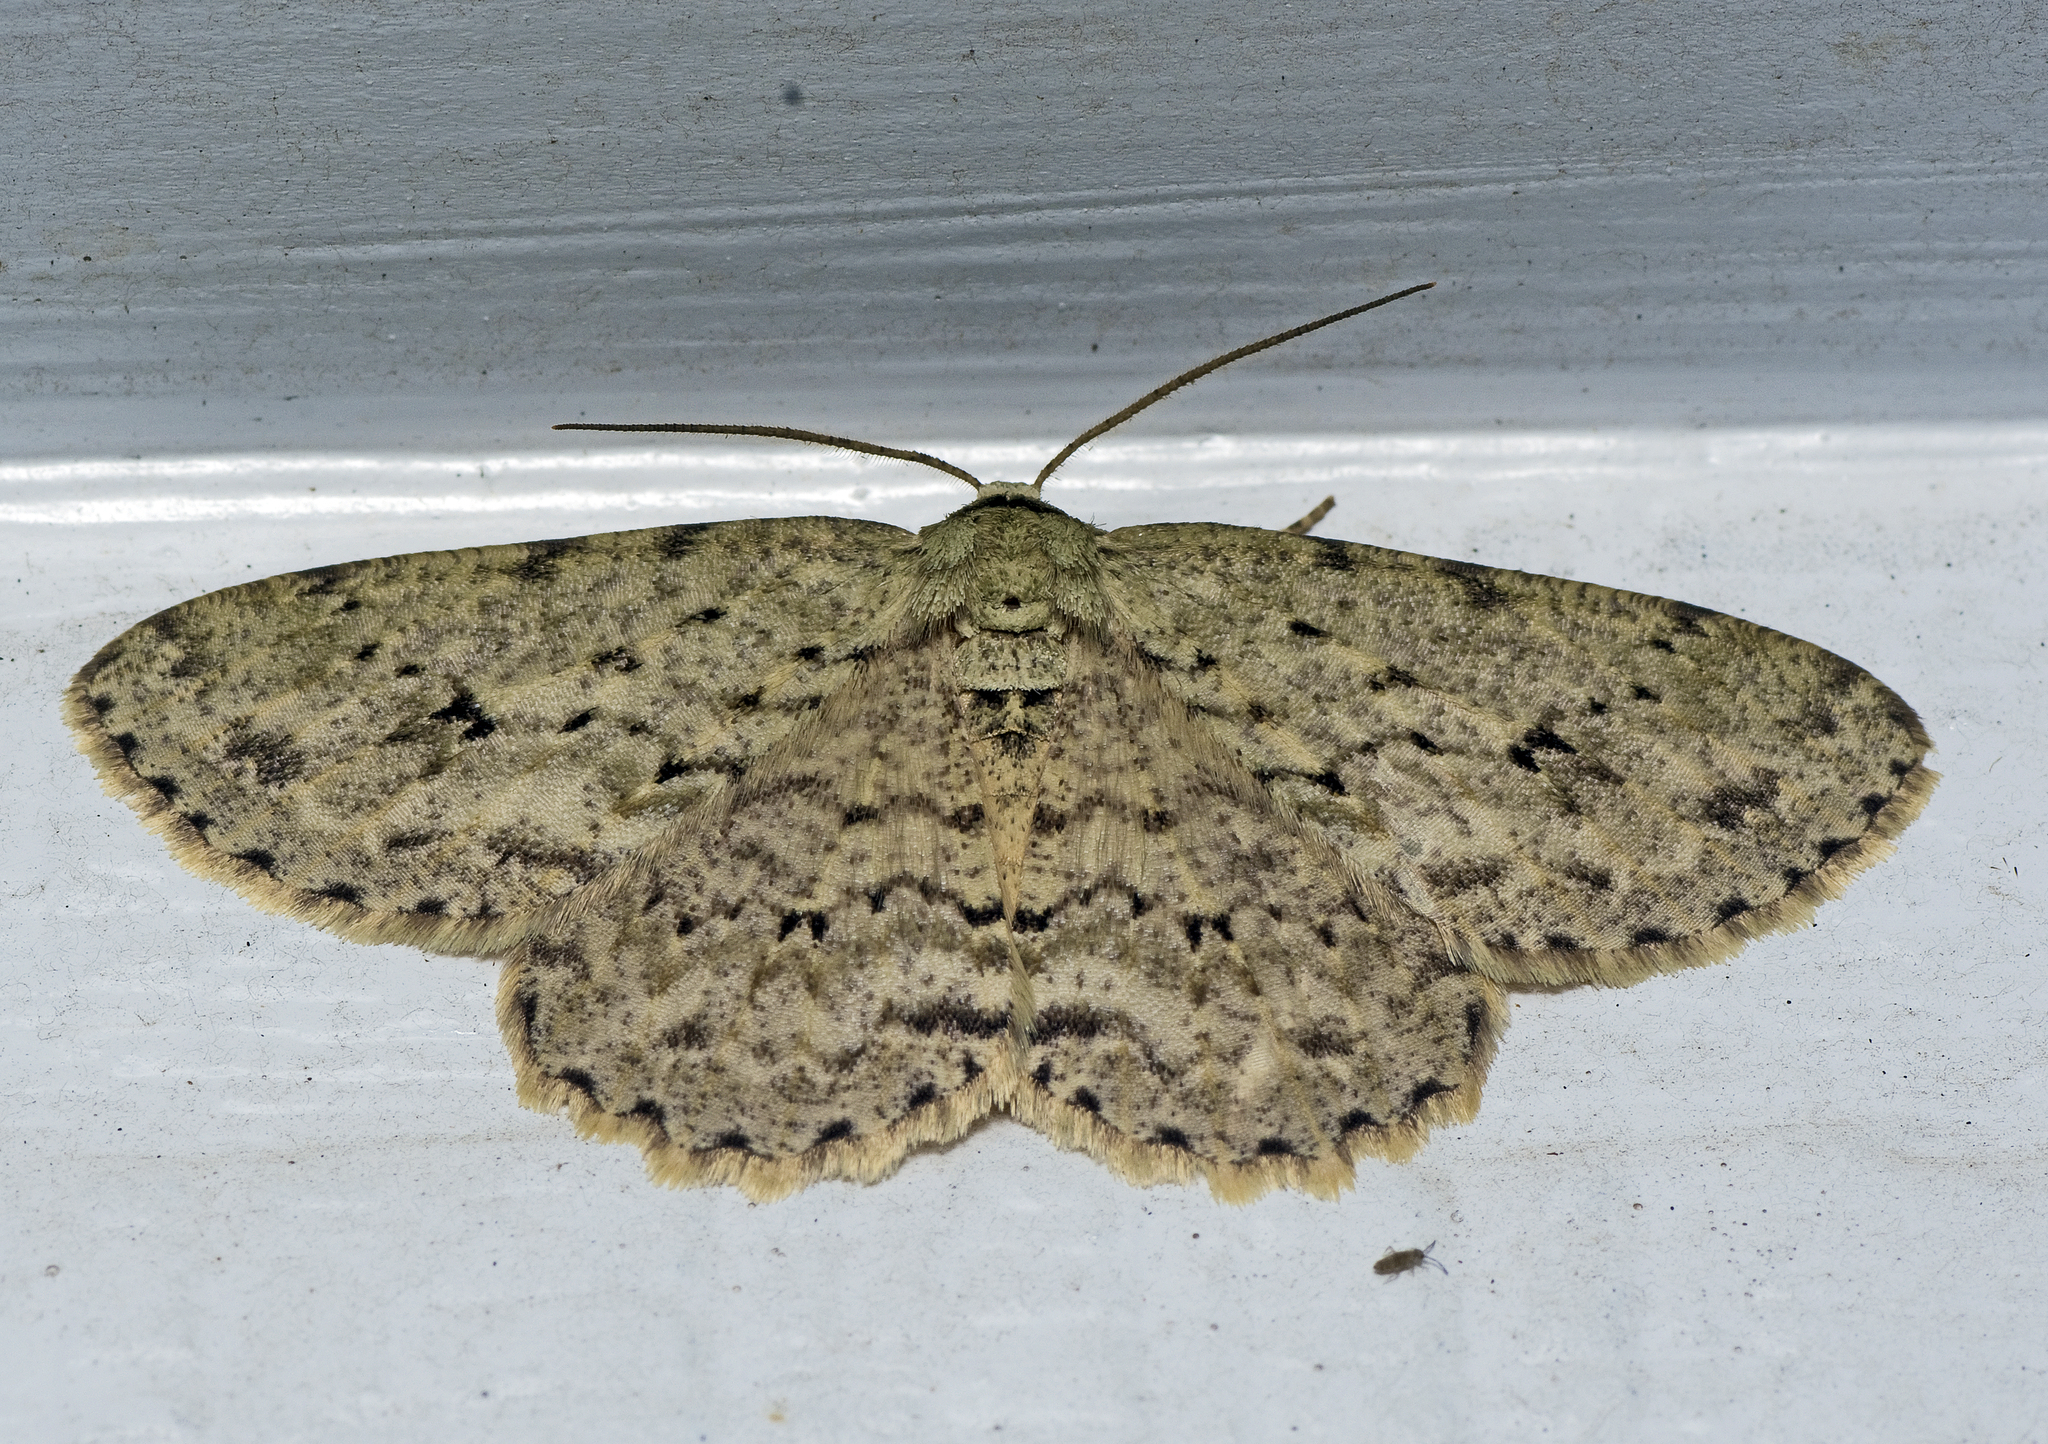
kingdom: Animalia
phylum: Arthropoda
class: Insecta
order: Lepidoptera
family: Geometridae
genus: Ectropis
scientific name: Ectropis bhurmitra
